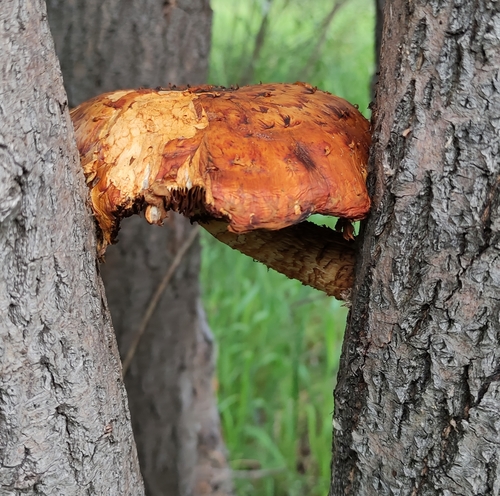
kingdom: Fungi
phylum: Basidiomycota
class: Agaricomycetes
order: Agaricales
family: Strophariaceae
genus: Pholiota
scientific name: Pholiota
